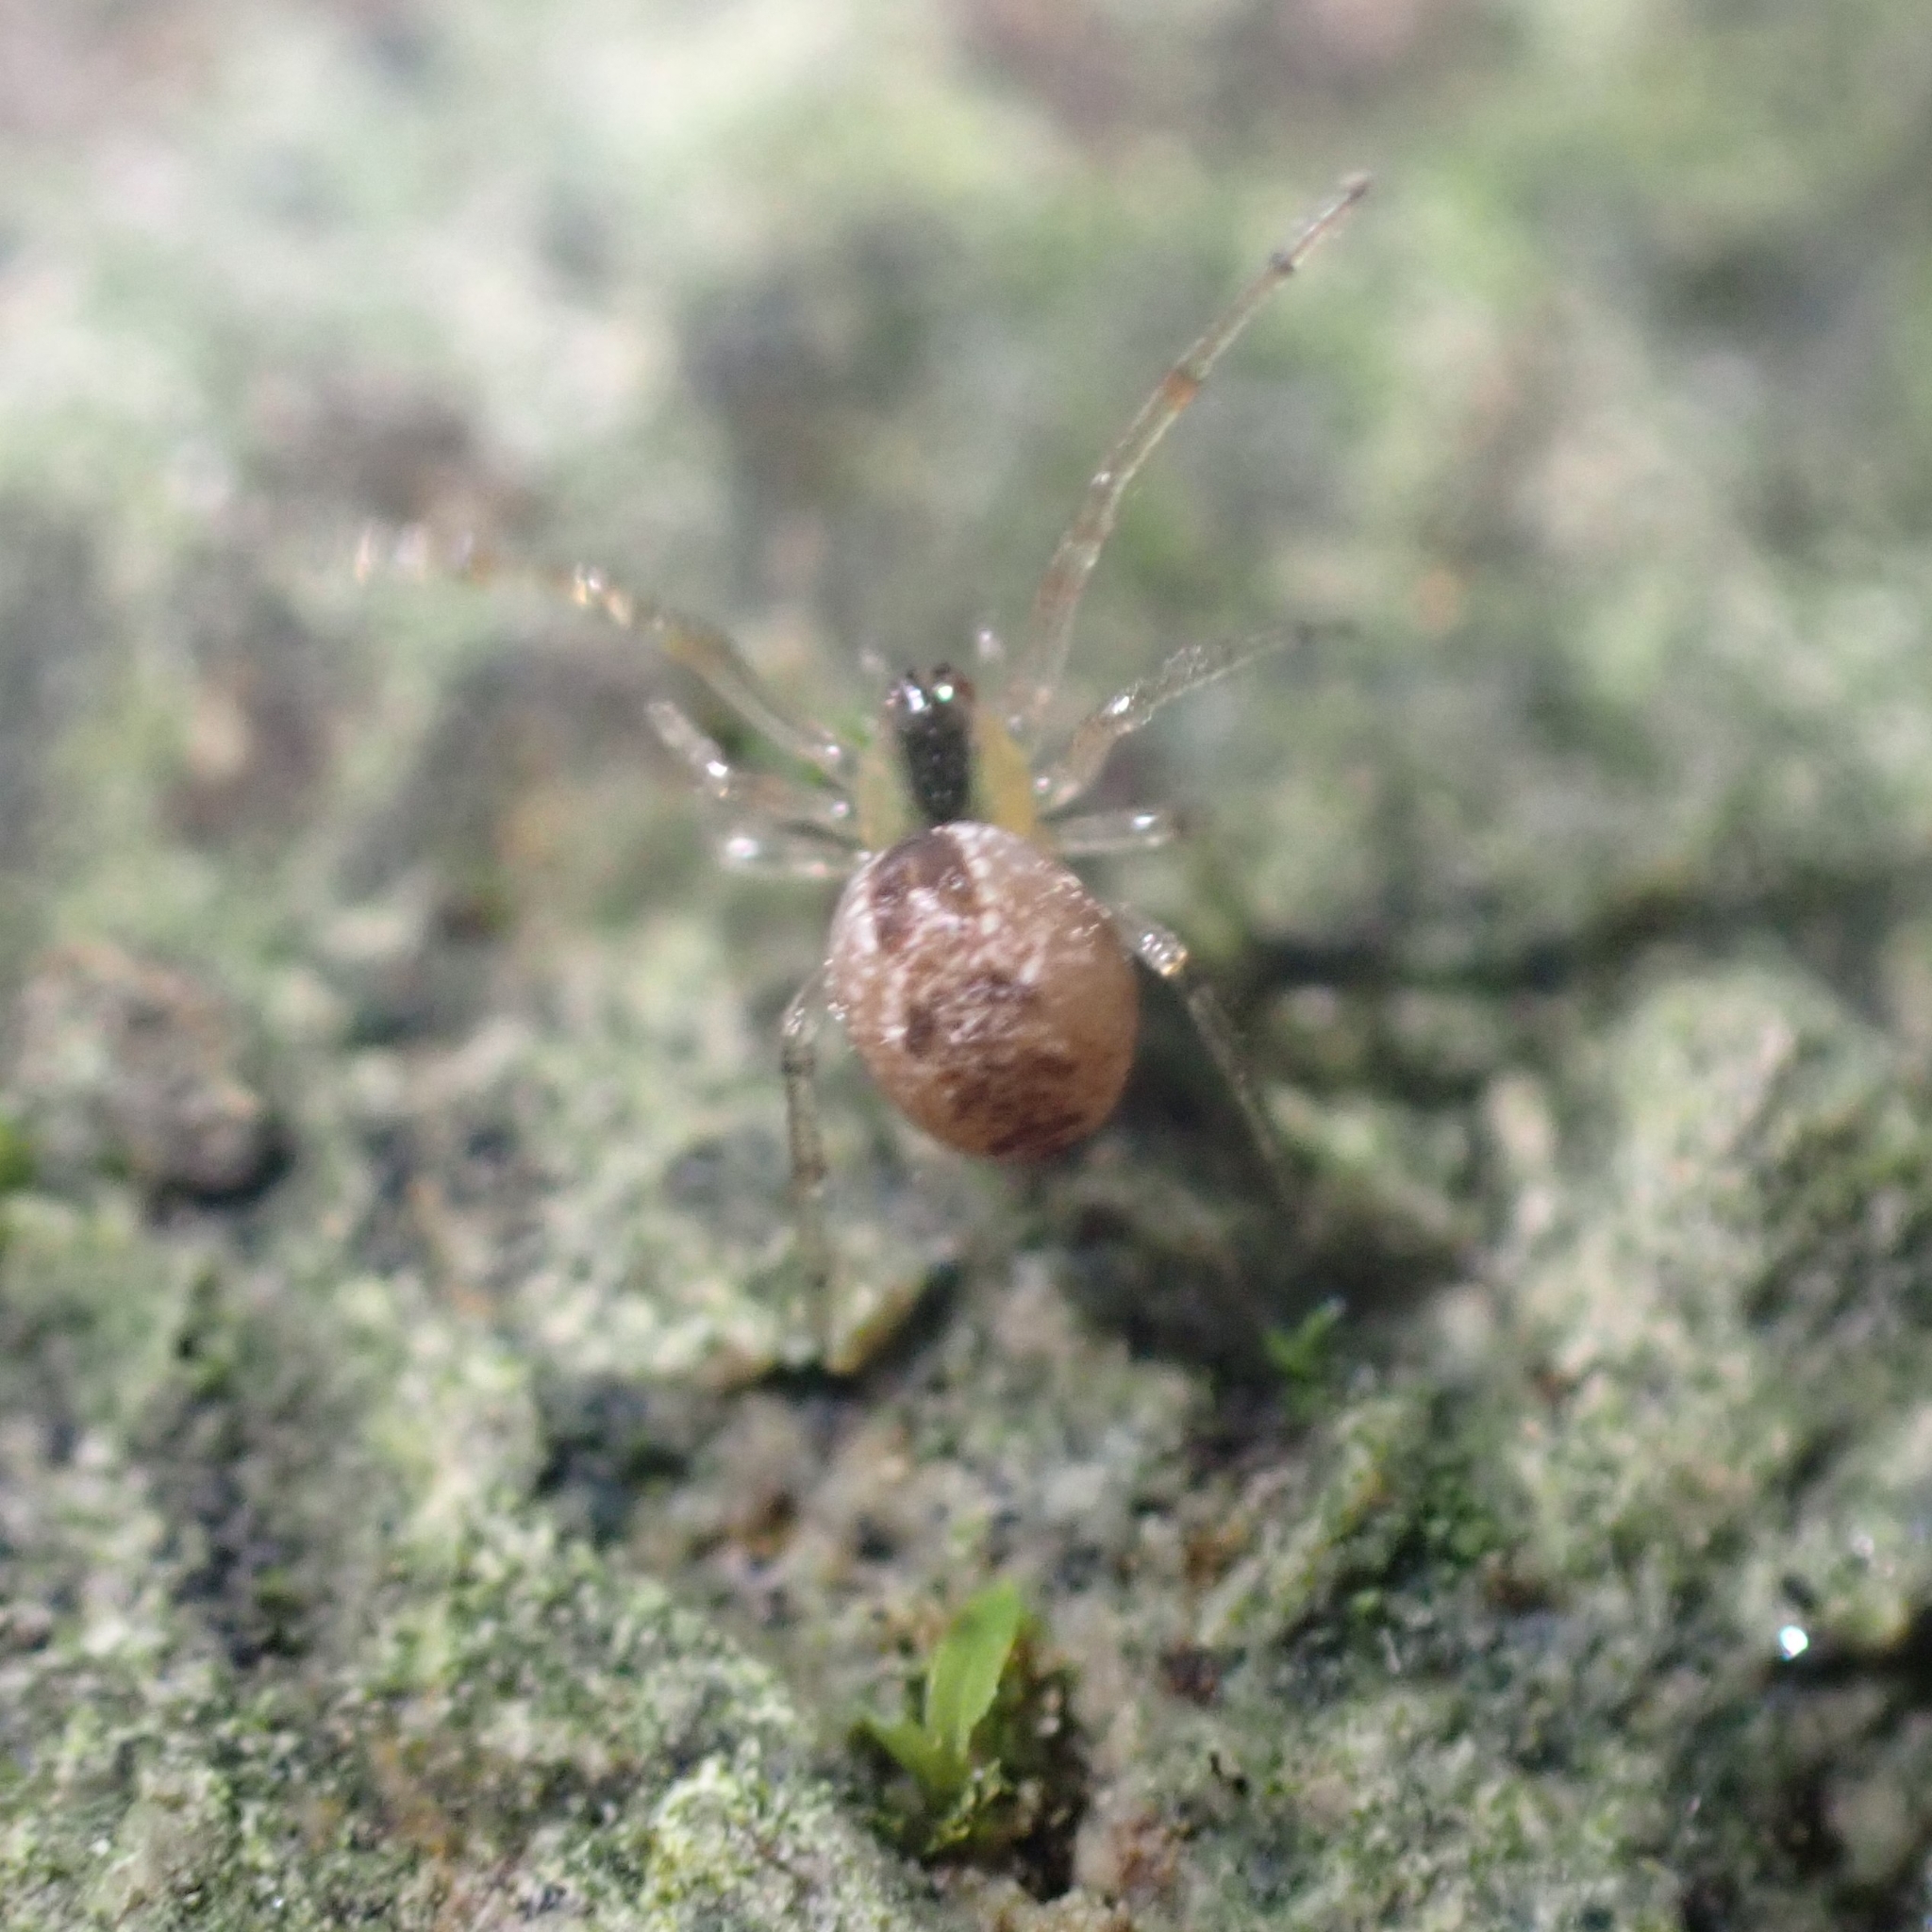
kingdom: Animalia
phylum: Arthropoda
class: Arachnida
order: Araneae
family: Theridiidae
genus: Anelosimus
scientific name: Anelosimus vittatus
